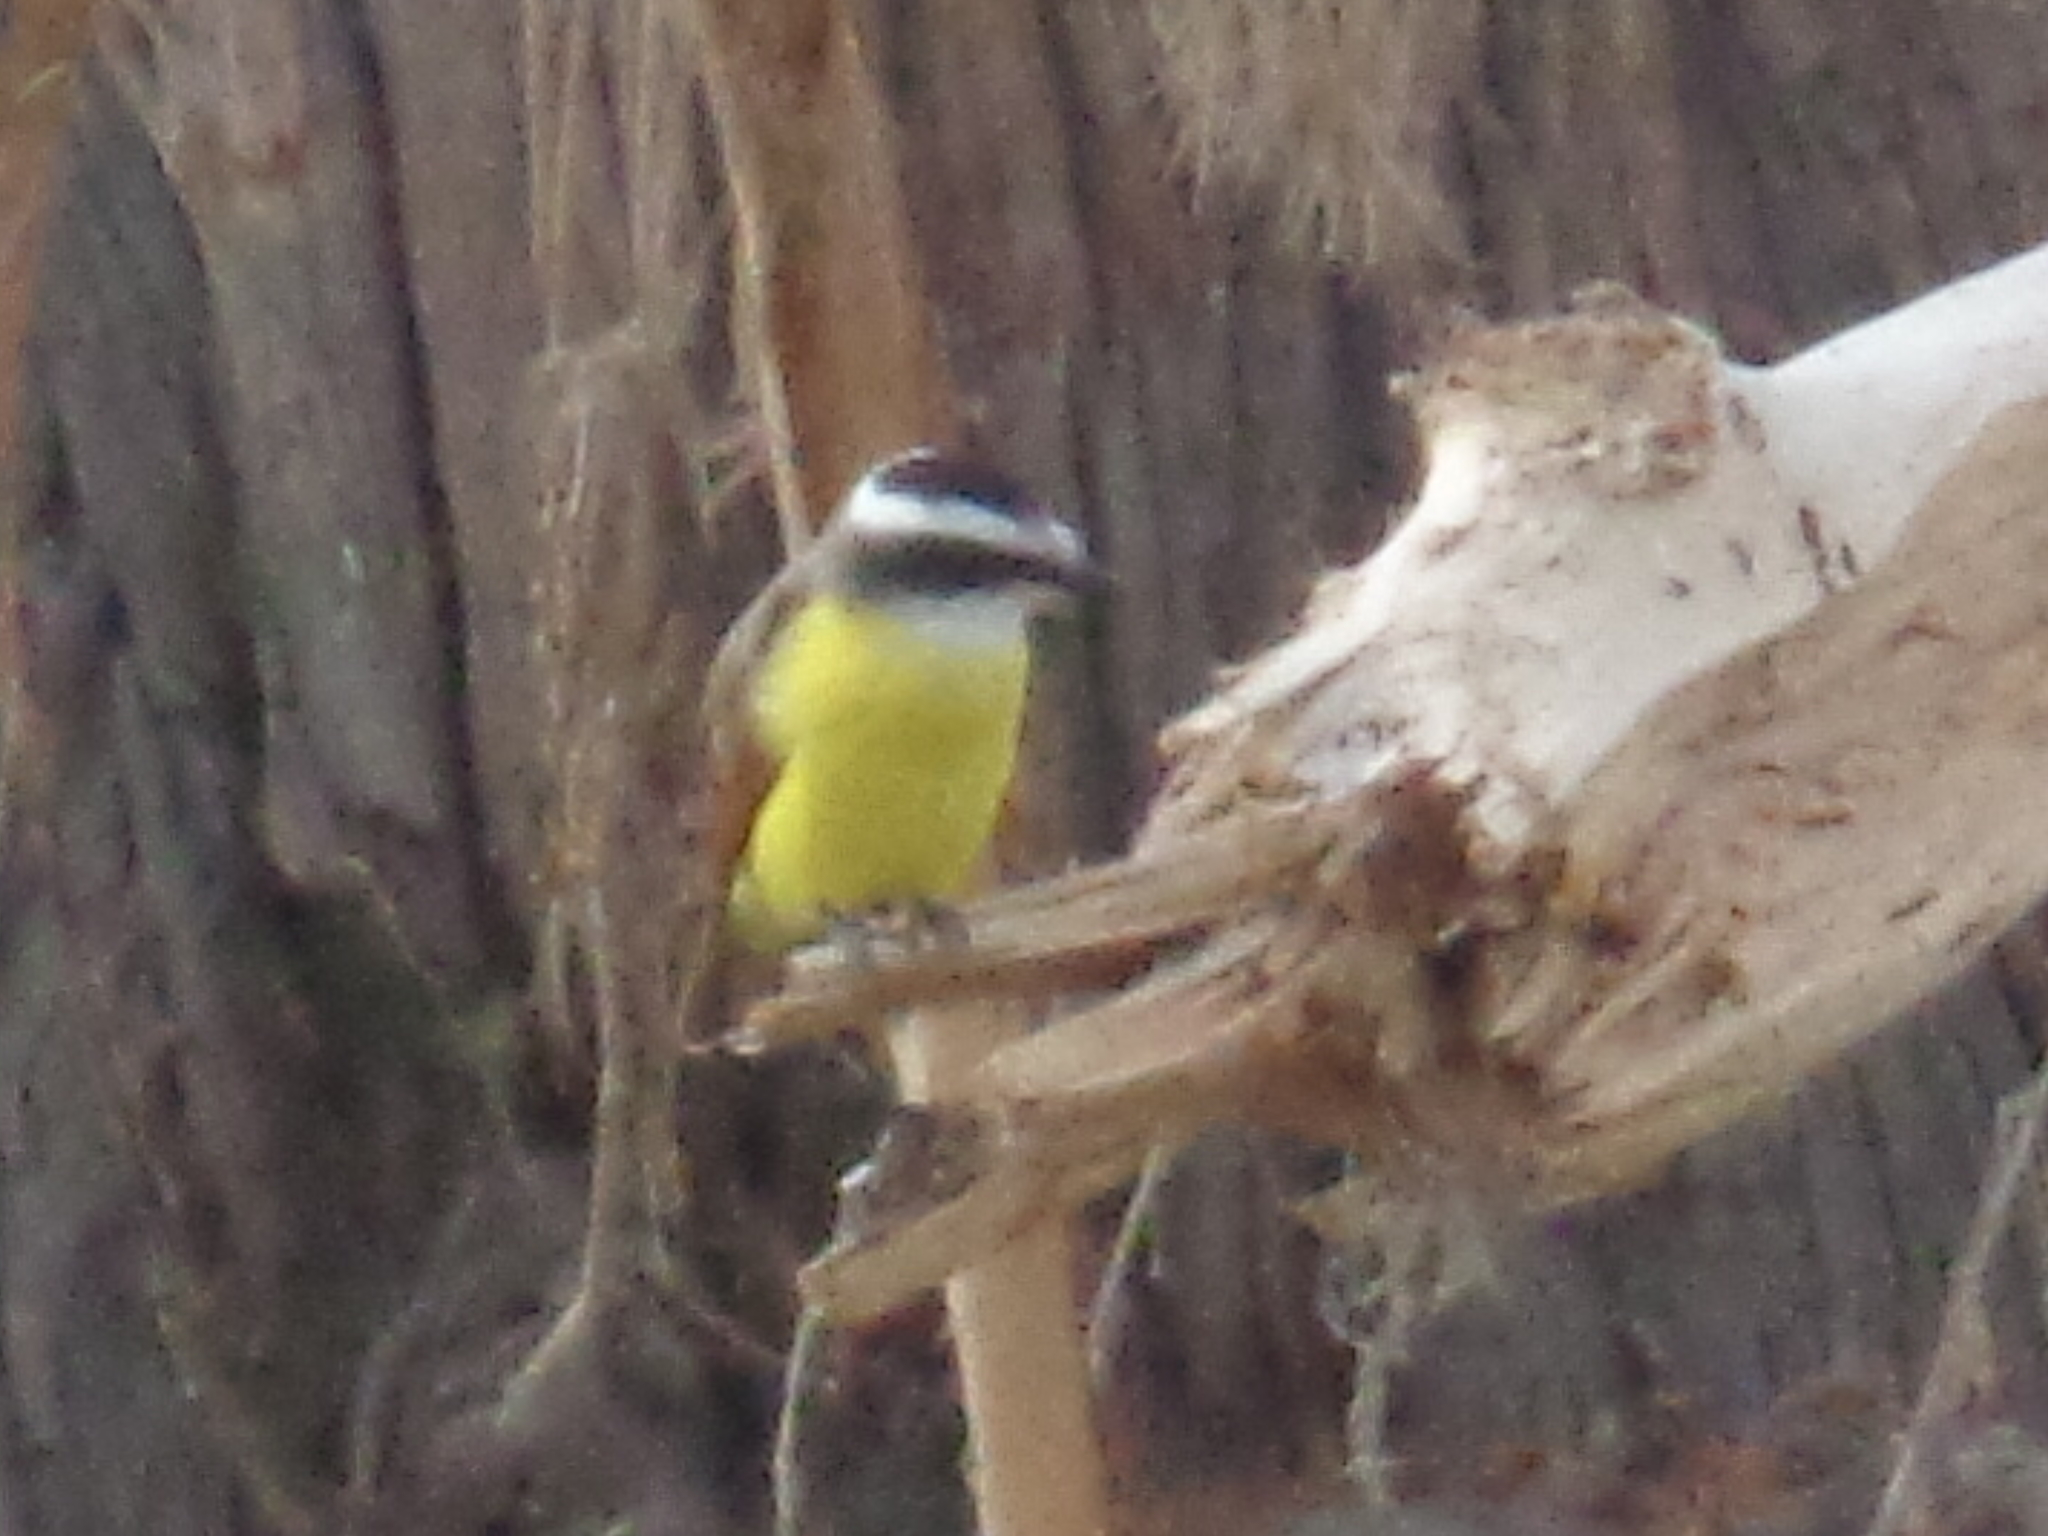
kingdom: Animalia
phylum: Chordata
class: Aves
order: Passeriformes
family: Tyrannidae
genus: Pitangus
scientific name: Pitangus sulphuratus
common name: Great kiskadee
